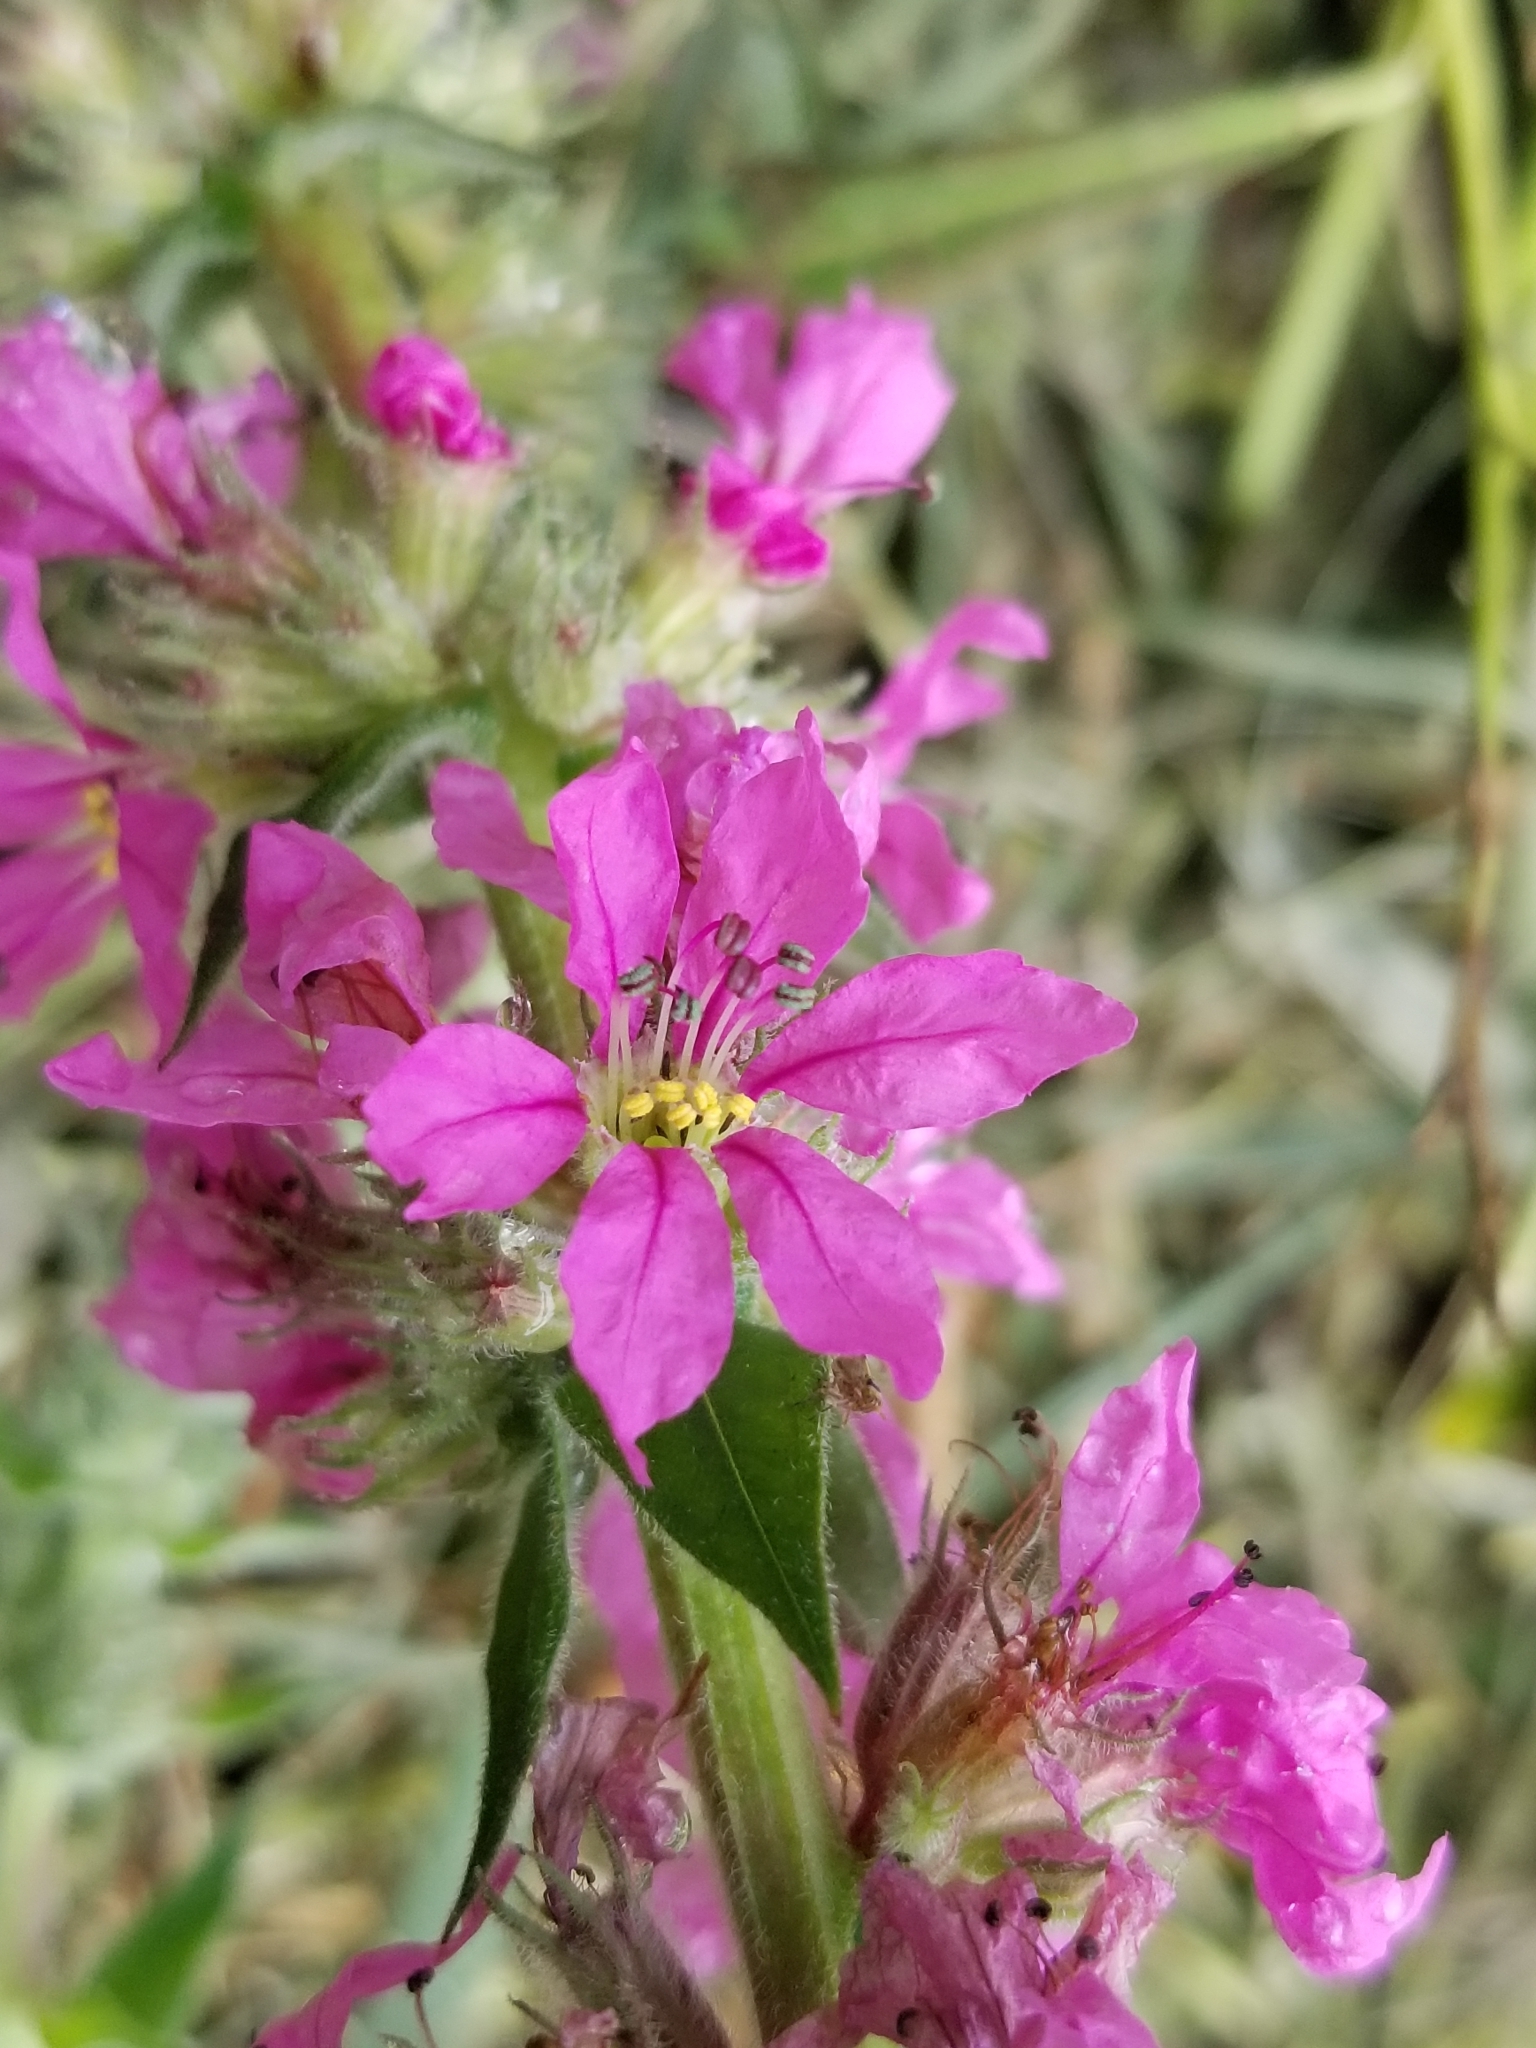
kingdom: Plantae
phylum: Tracheophyta
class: Magnoliopsida
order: Myrtales
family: Lythraceae
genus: Lythrum
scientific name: Lythrum salicaria
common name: Purple loosestrife
